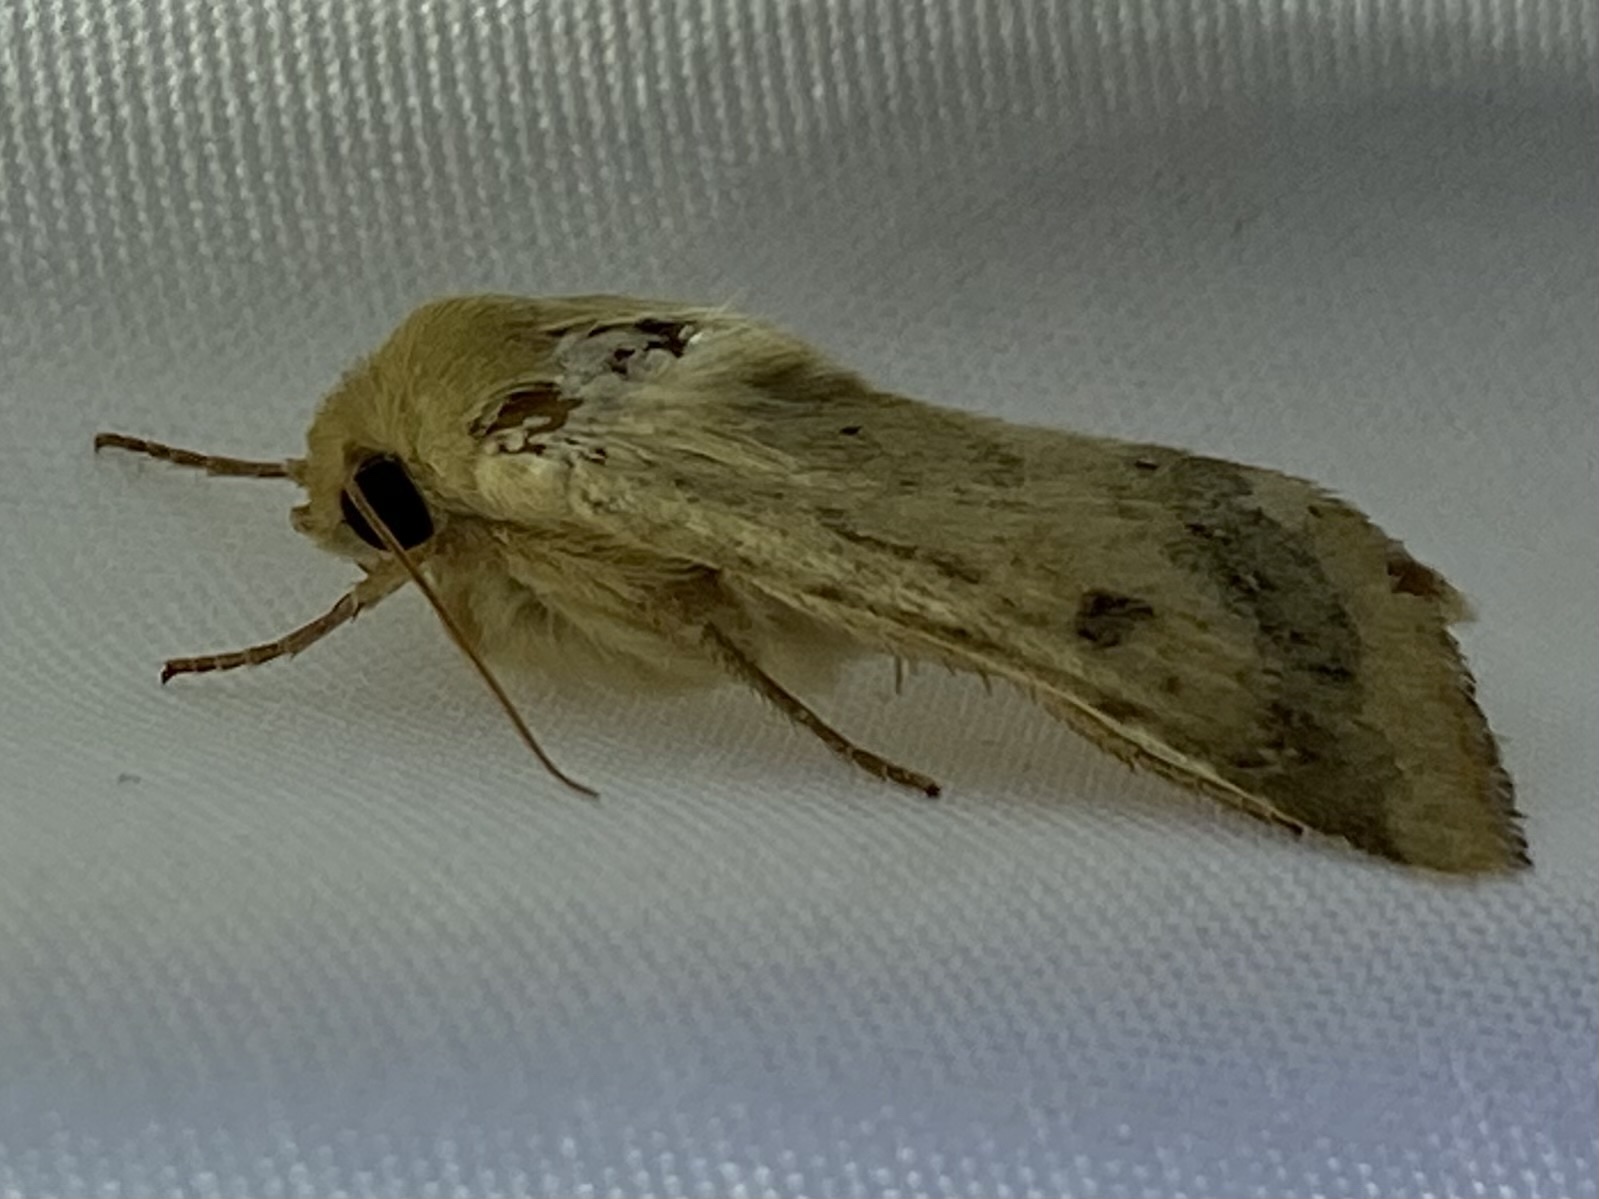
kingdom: Animalia
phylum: Arthropoda
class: Insecta
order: Lepidoptera
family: Noctuidae
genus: Helicoverpa
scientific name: Helicoverpa zea
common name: Bollworm
